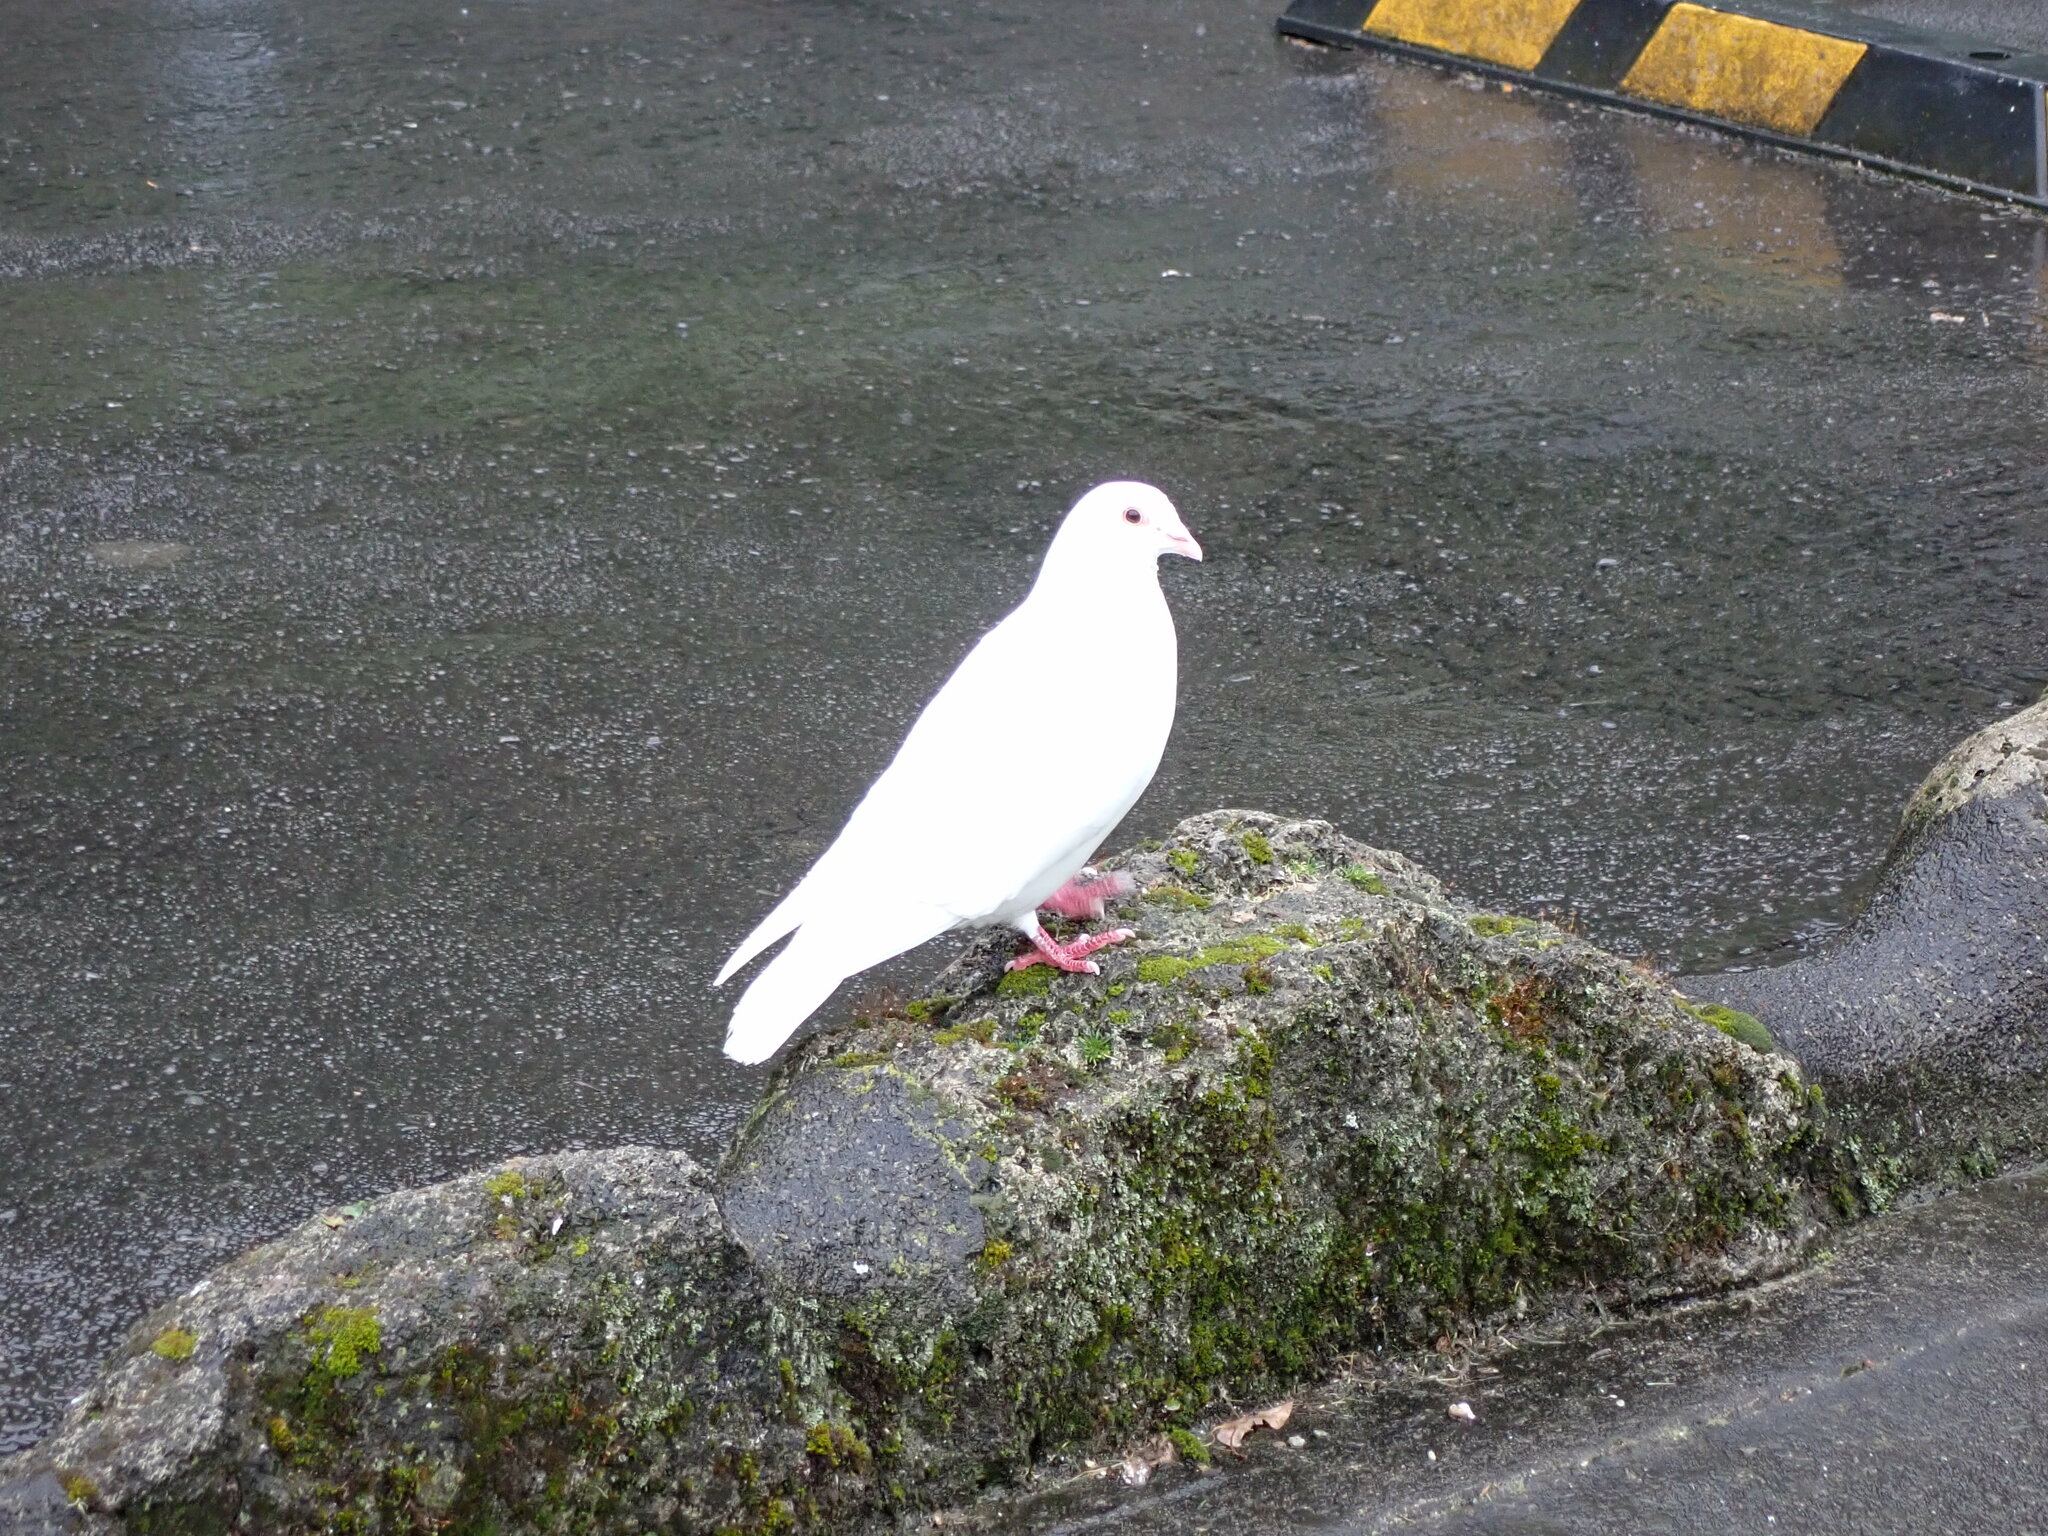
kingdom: Animalia
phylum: Chordata
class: Aves
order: Columbiformes
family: Columbidae
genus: Columba
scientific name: Columba livia
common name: Rock pigeon
